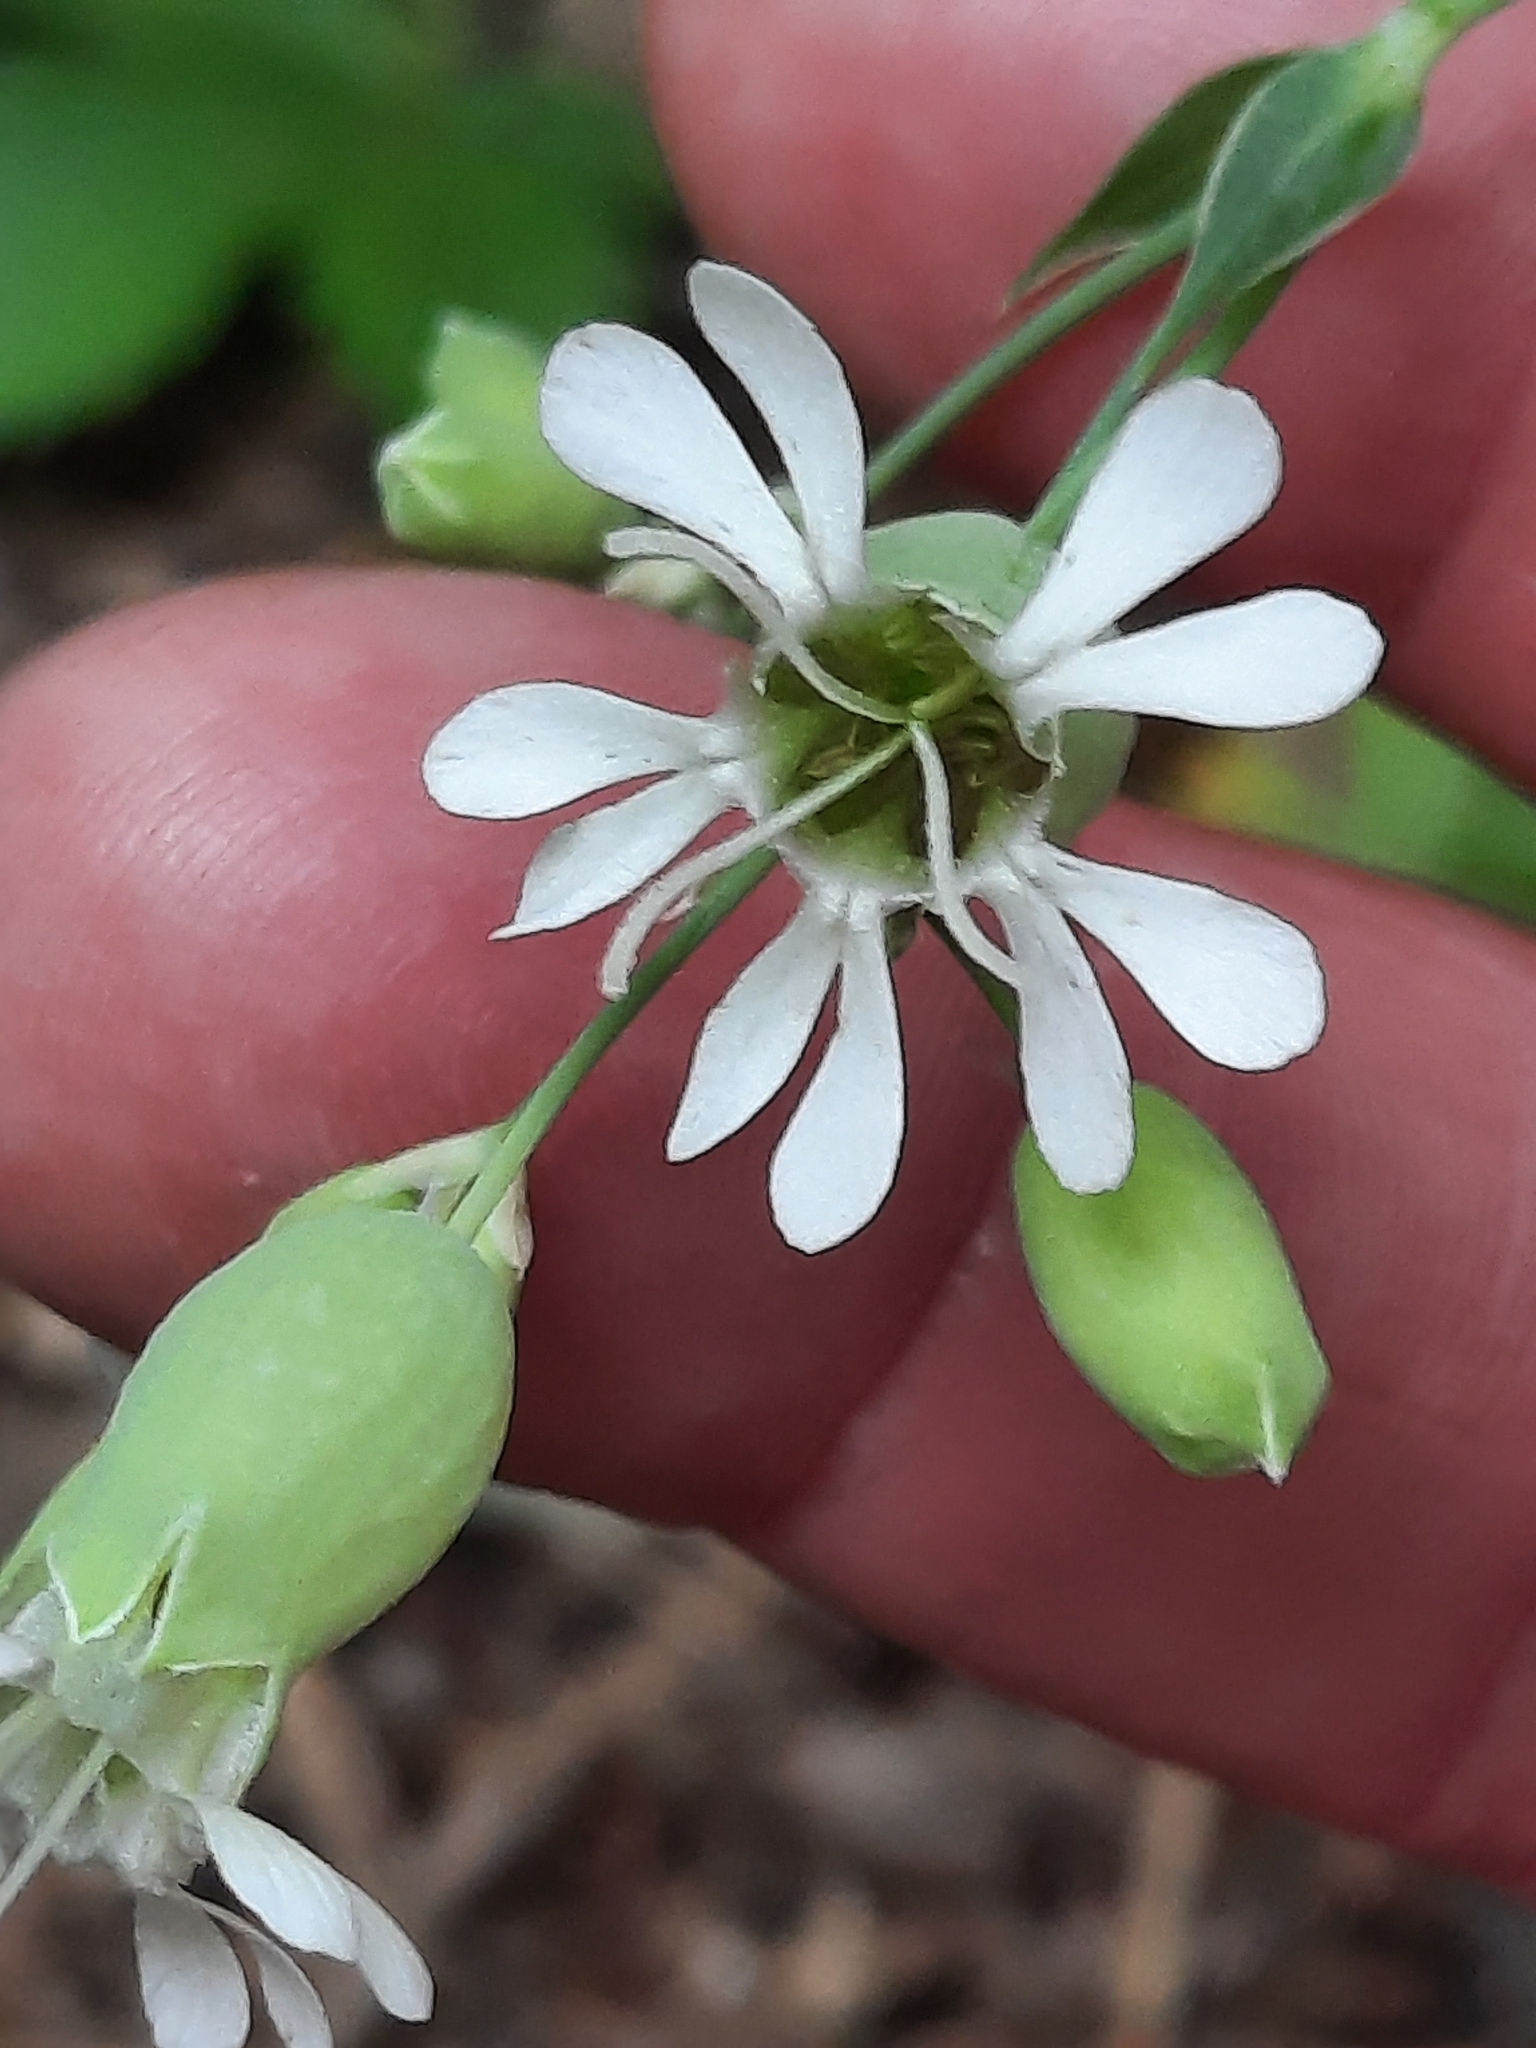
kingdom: Plantae
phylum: Tracheophyta
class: Magnoliopsida
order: Caryophyllales
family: Caryophyllaceae
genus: Silene
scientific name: Silene vulgaris
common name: Bladder campion
